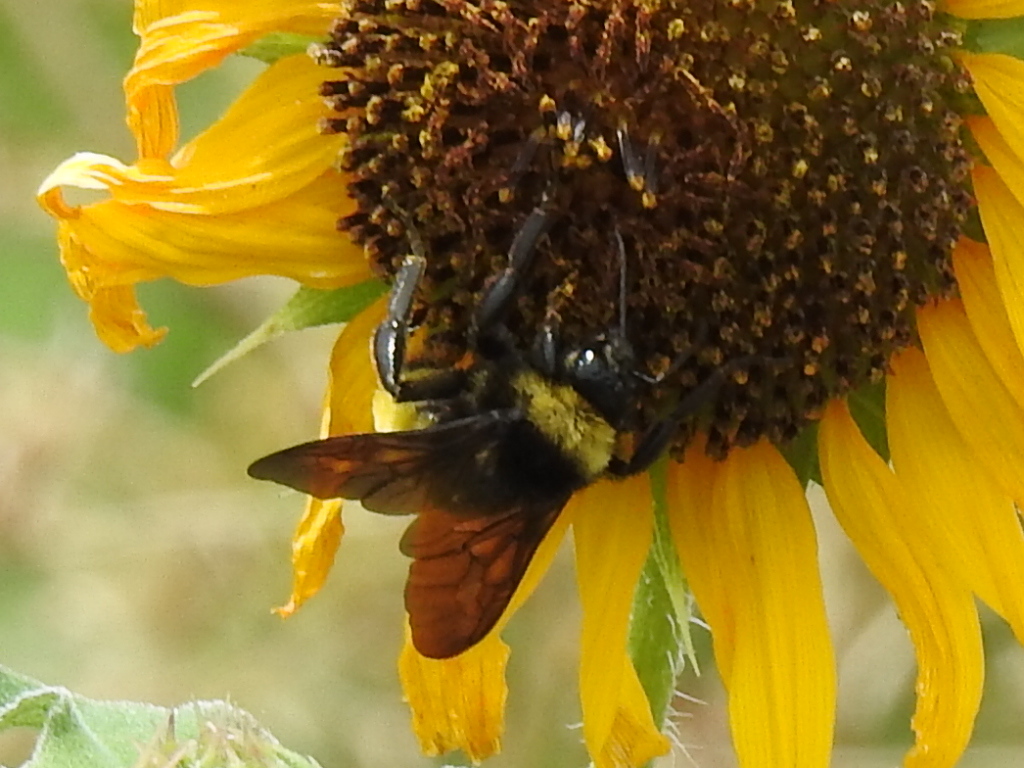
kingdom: Animalia
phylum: Arthropoda
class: Insecta
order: Hymenoptera
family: Apidae
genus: Bombus
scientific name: Bombus pensylvanicus
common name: Bumble bee
